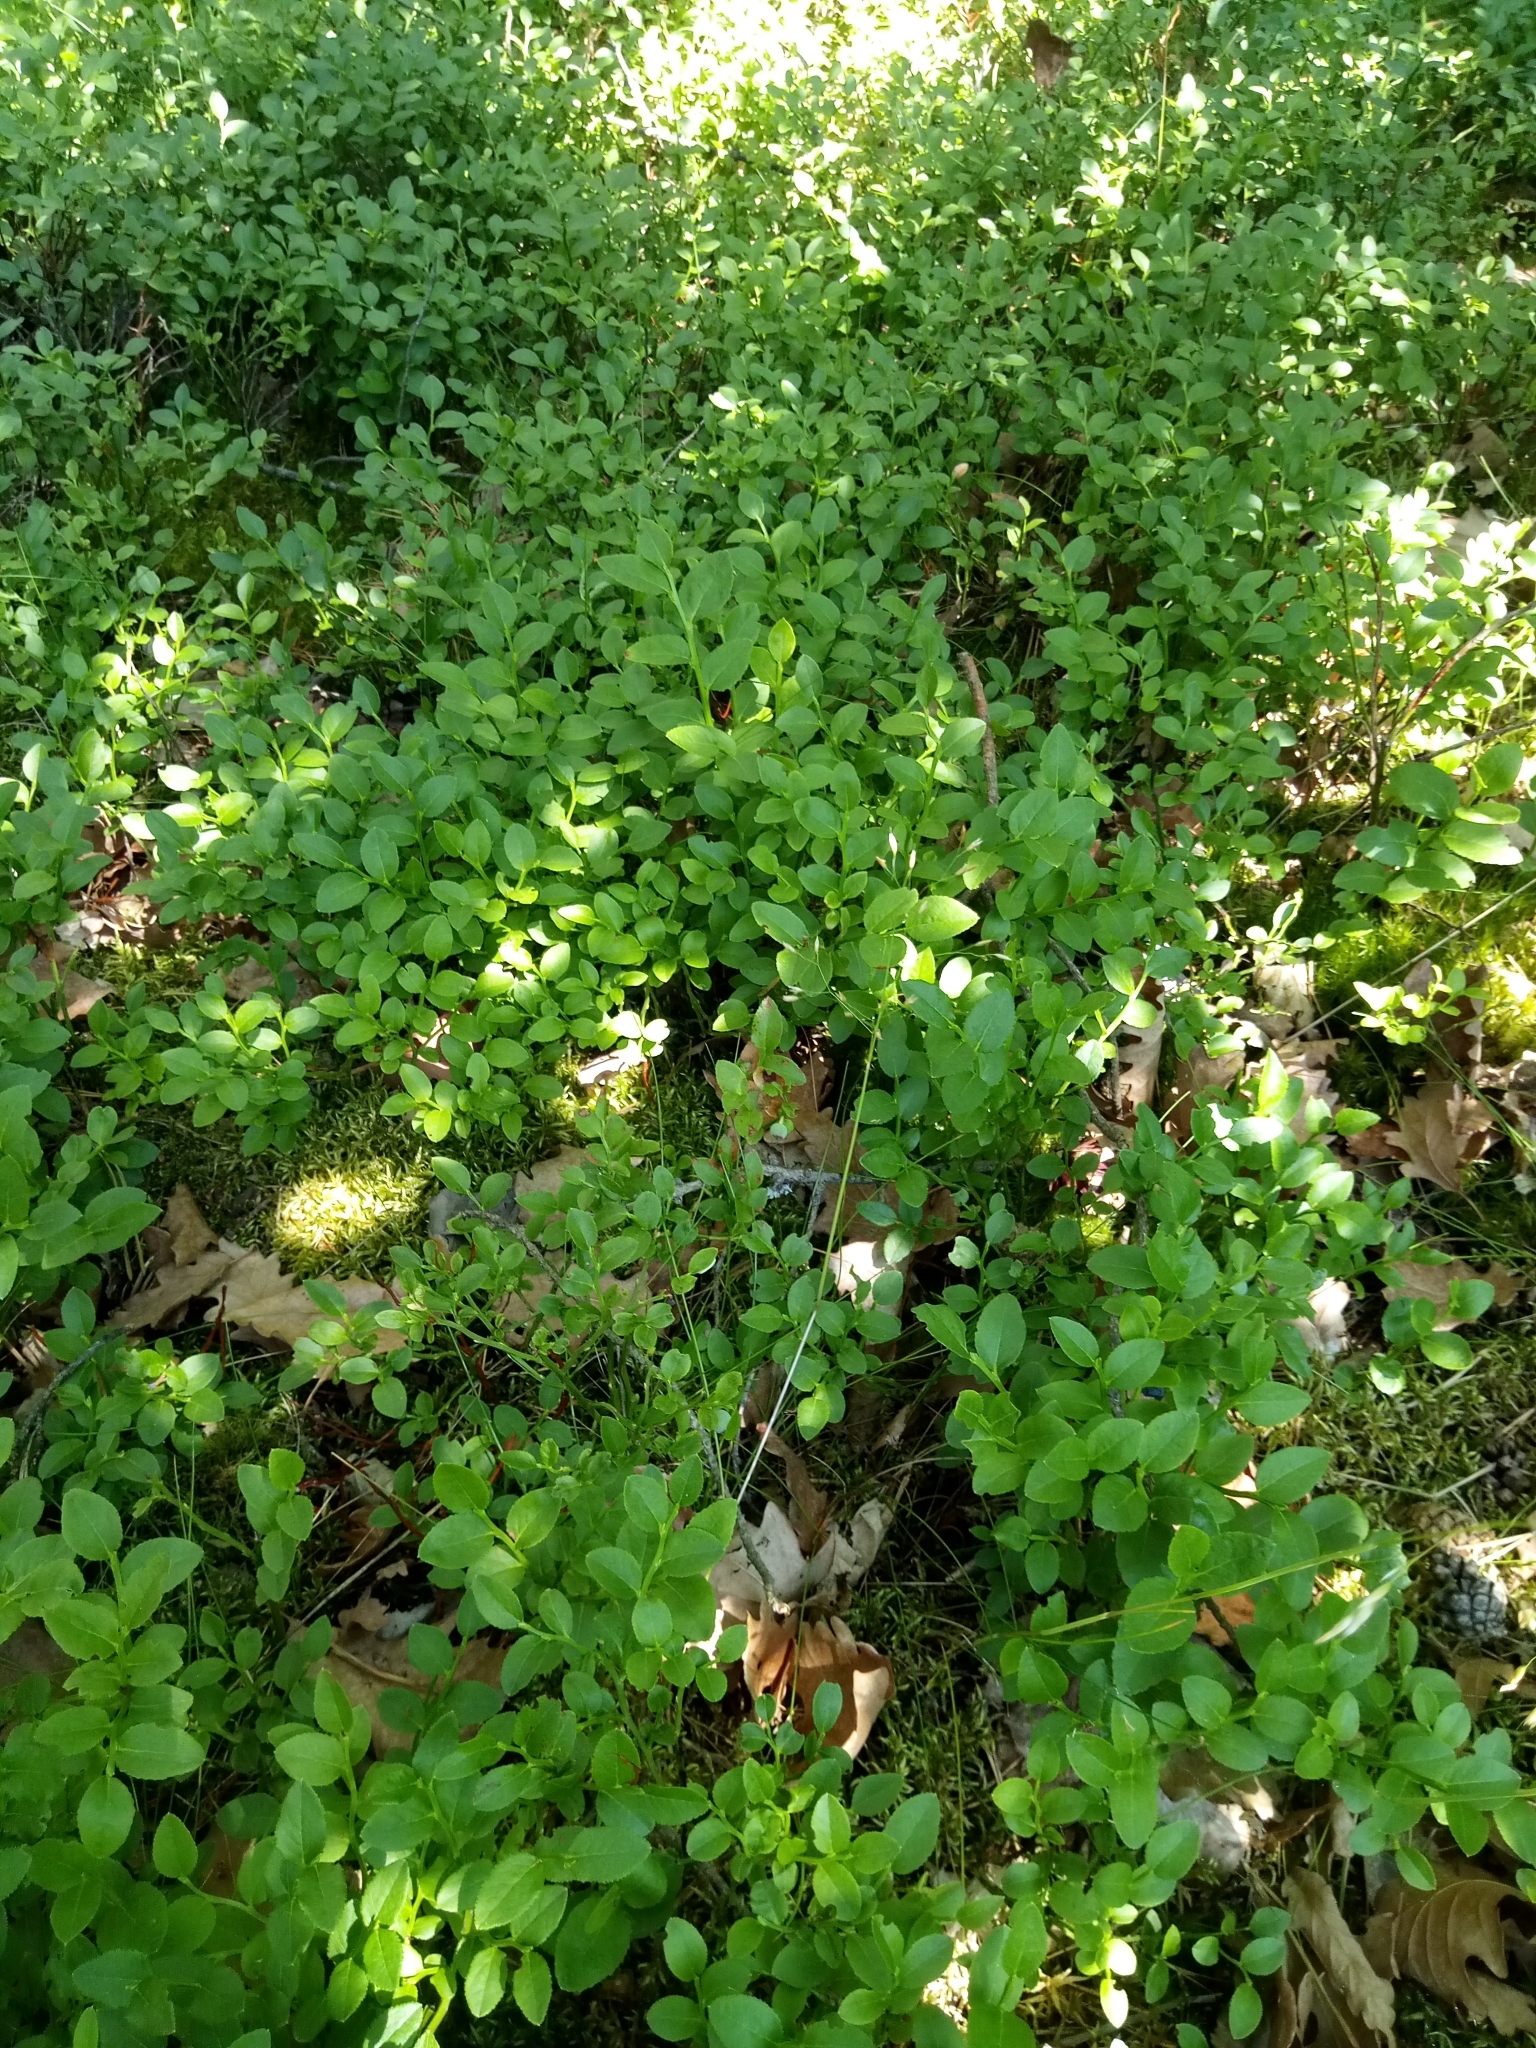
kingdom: Plantae
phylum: Tracheophyta
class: Magnoliopsida
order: Ericales
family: Ericaceae
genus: Vaccinium
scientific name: Vaccinium myrtillus
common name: Bilberry
